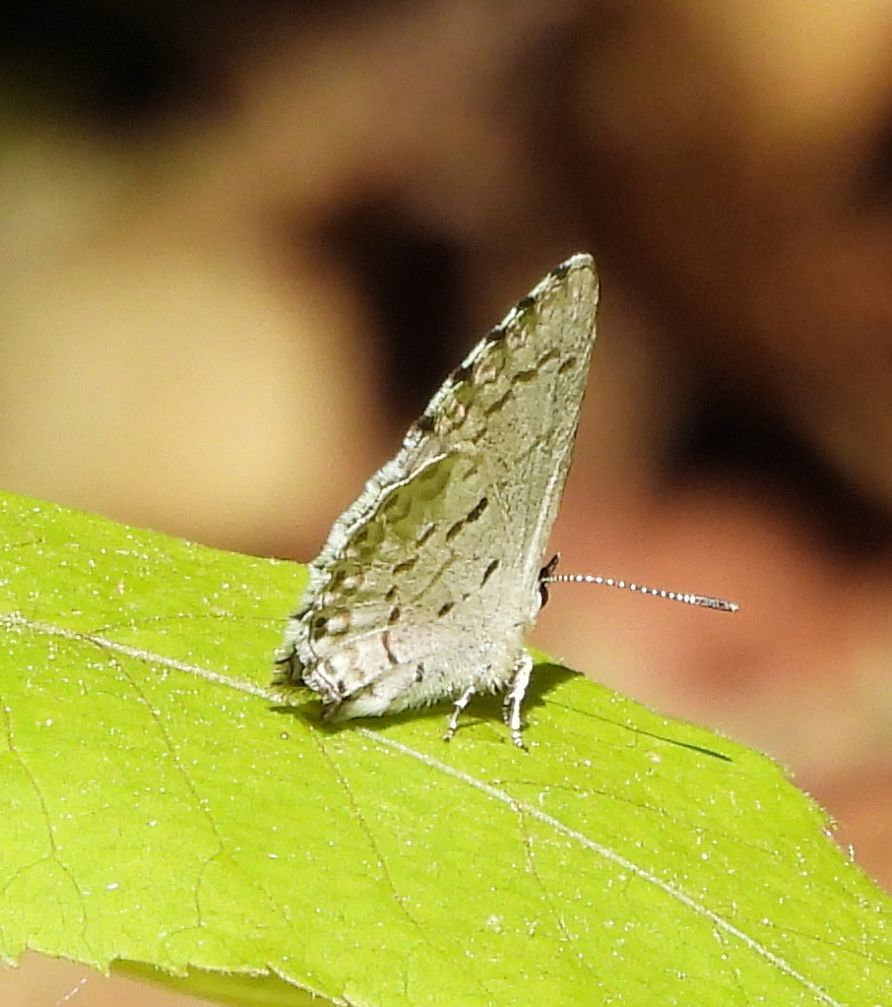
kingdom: Animalia
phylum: Arthropoda
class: Insecta
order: Lepidoptera
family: Lycaenidae
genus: Celastrina
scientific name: Celastrina lucia
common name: Lucia azure
